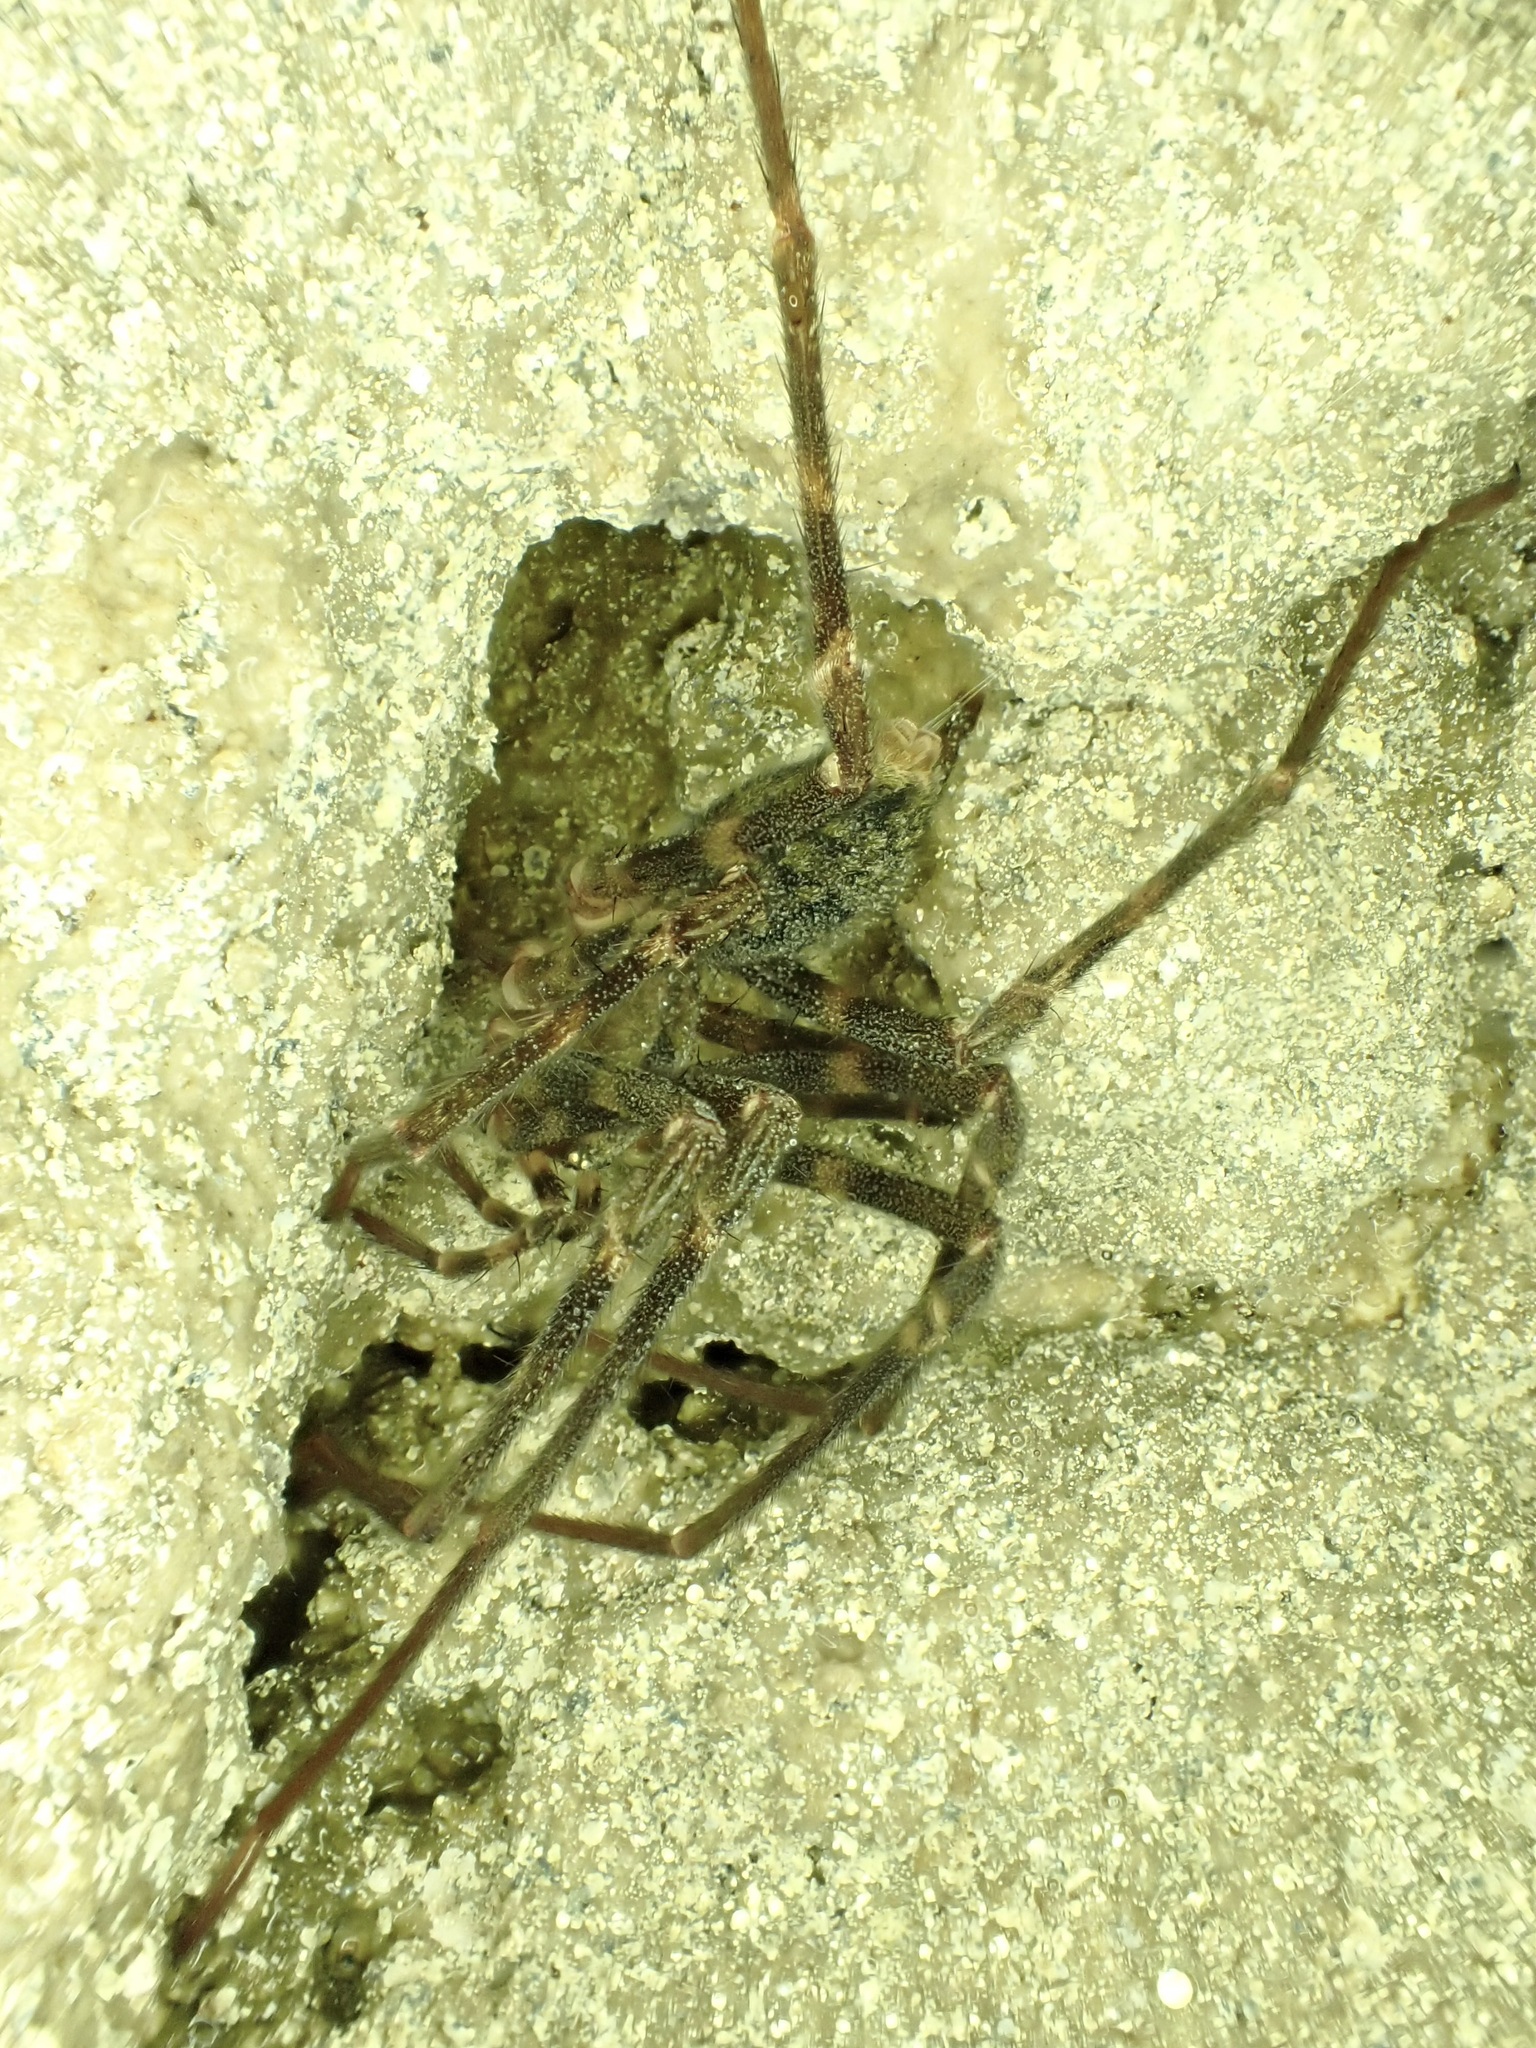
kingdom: Animalia
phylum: Arthropoda
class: Arachnida
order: Araneae
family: Gradungulidae
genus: Spelungula
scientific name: Spelungula cavernicola
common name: Nelson cave spider
